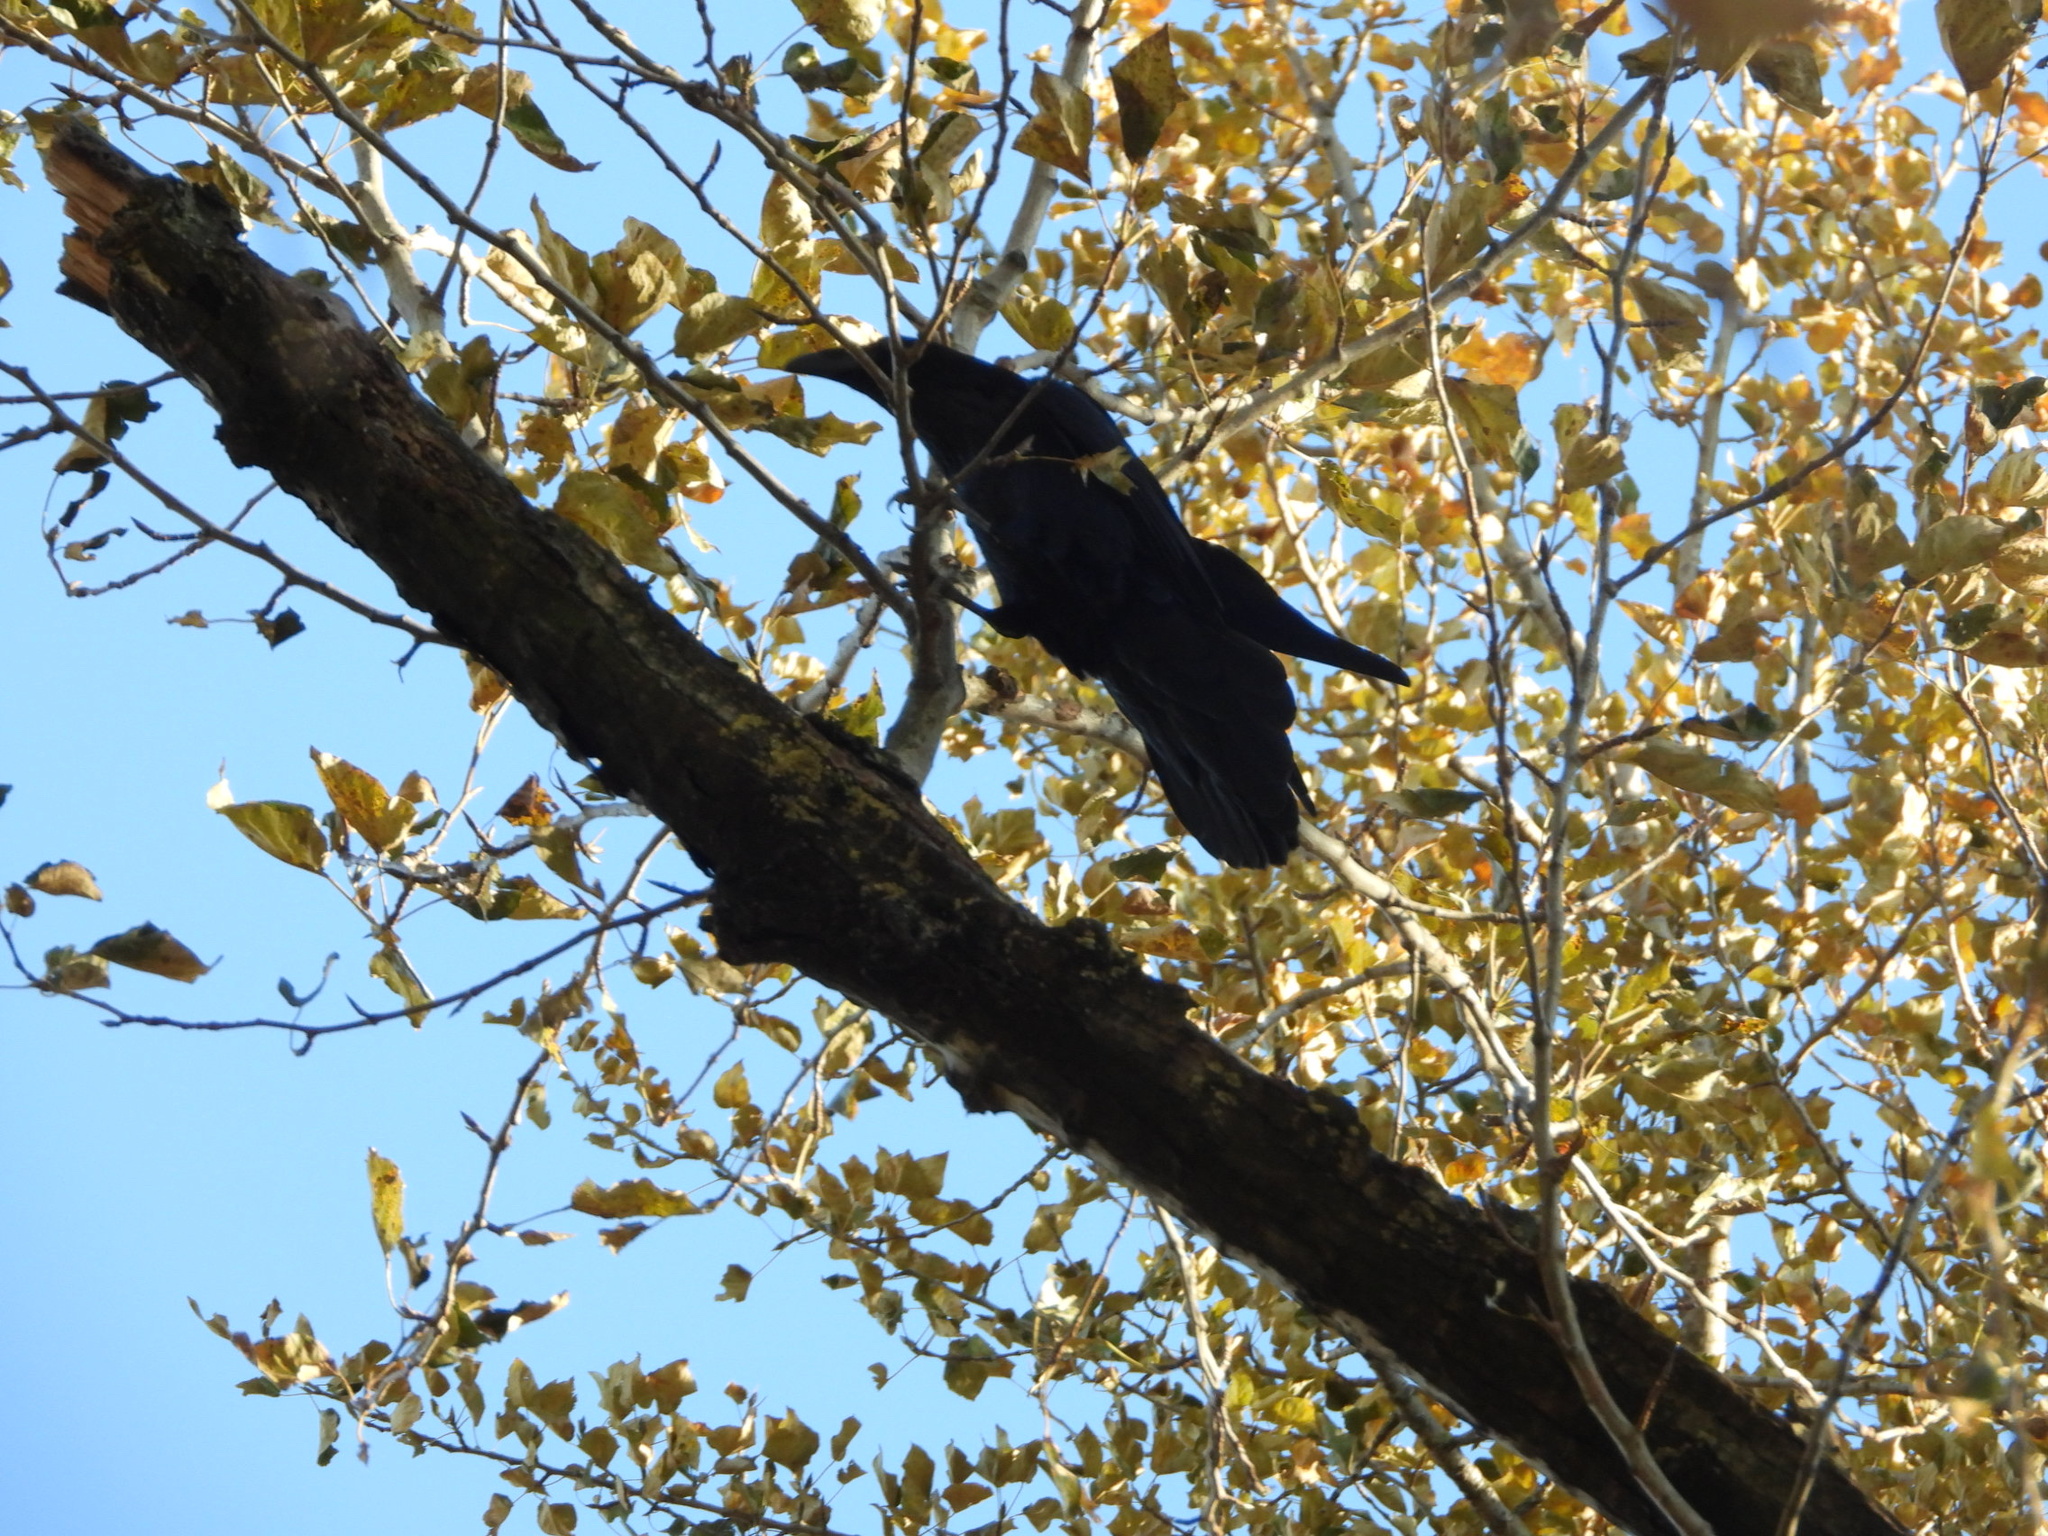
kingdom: Animalia
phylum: Chordata
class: Aves
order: Passeriformes
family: Corvidae
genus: Corvus
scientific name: Corvus corax
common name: Common raven
